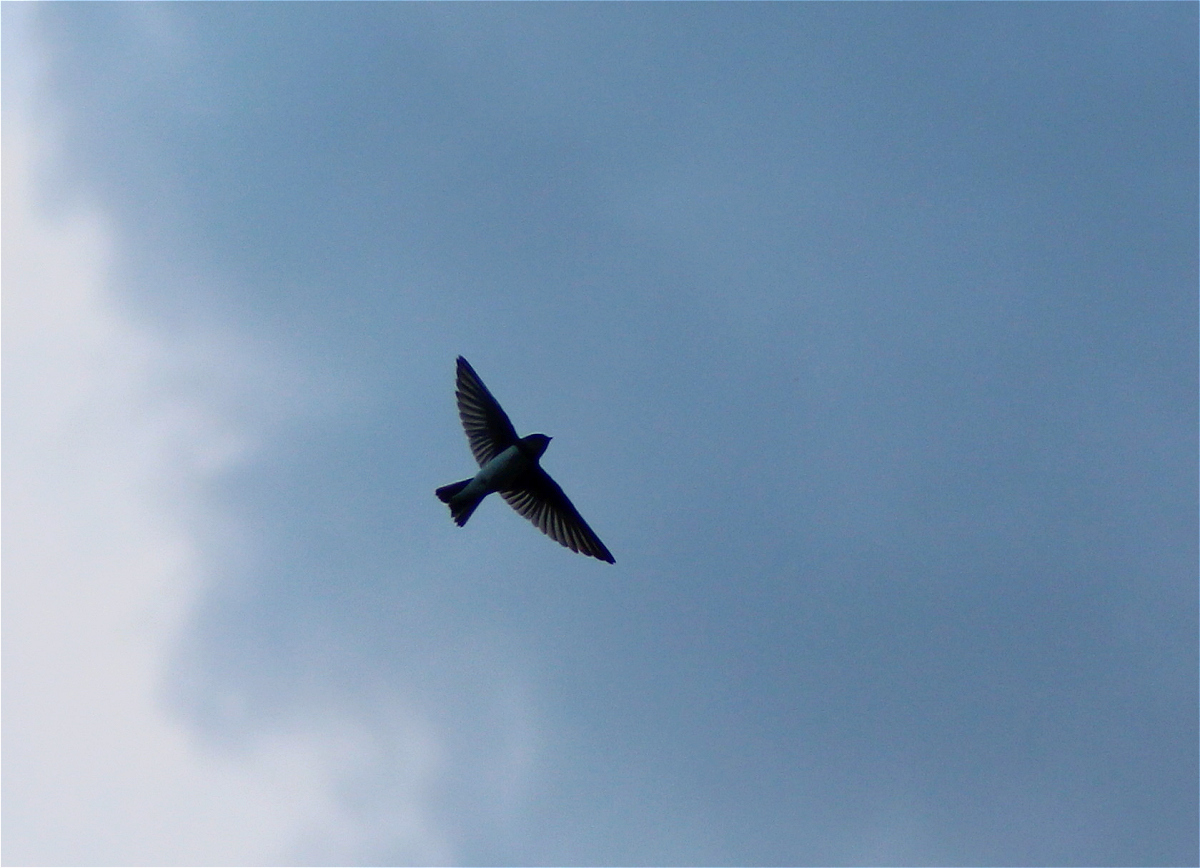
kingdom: Animalia
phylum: Chordata
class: Aves
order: Passeriformes
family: Hirundinidae
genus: Riparia
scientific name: Riparia riparia
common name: Sand martin
